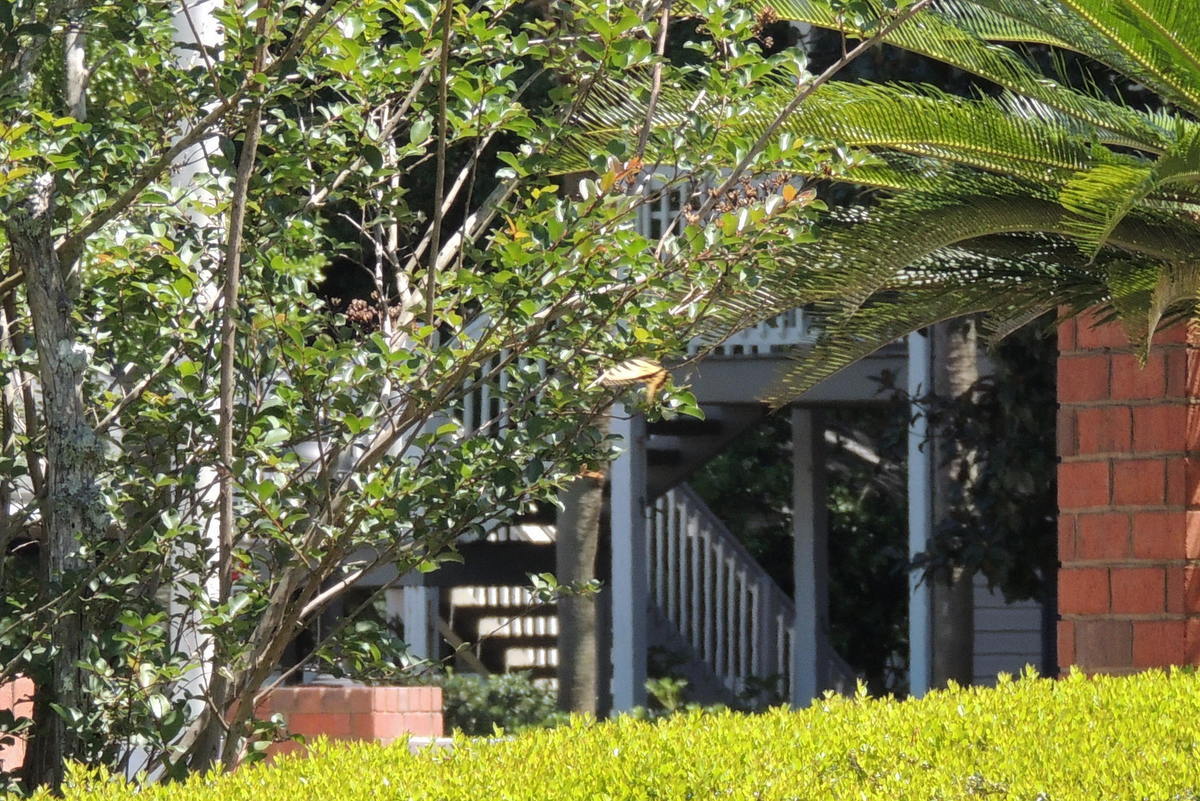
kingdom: Animalia
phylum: Arthropoda
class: Insecta
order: Lepidoptera
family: Papilionidae
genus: Papilio
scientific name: Papilio glaucus
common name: Tiger swallowtail
